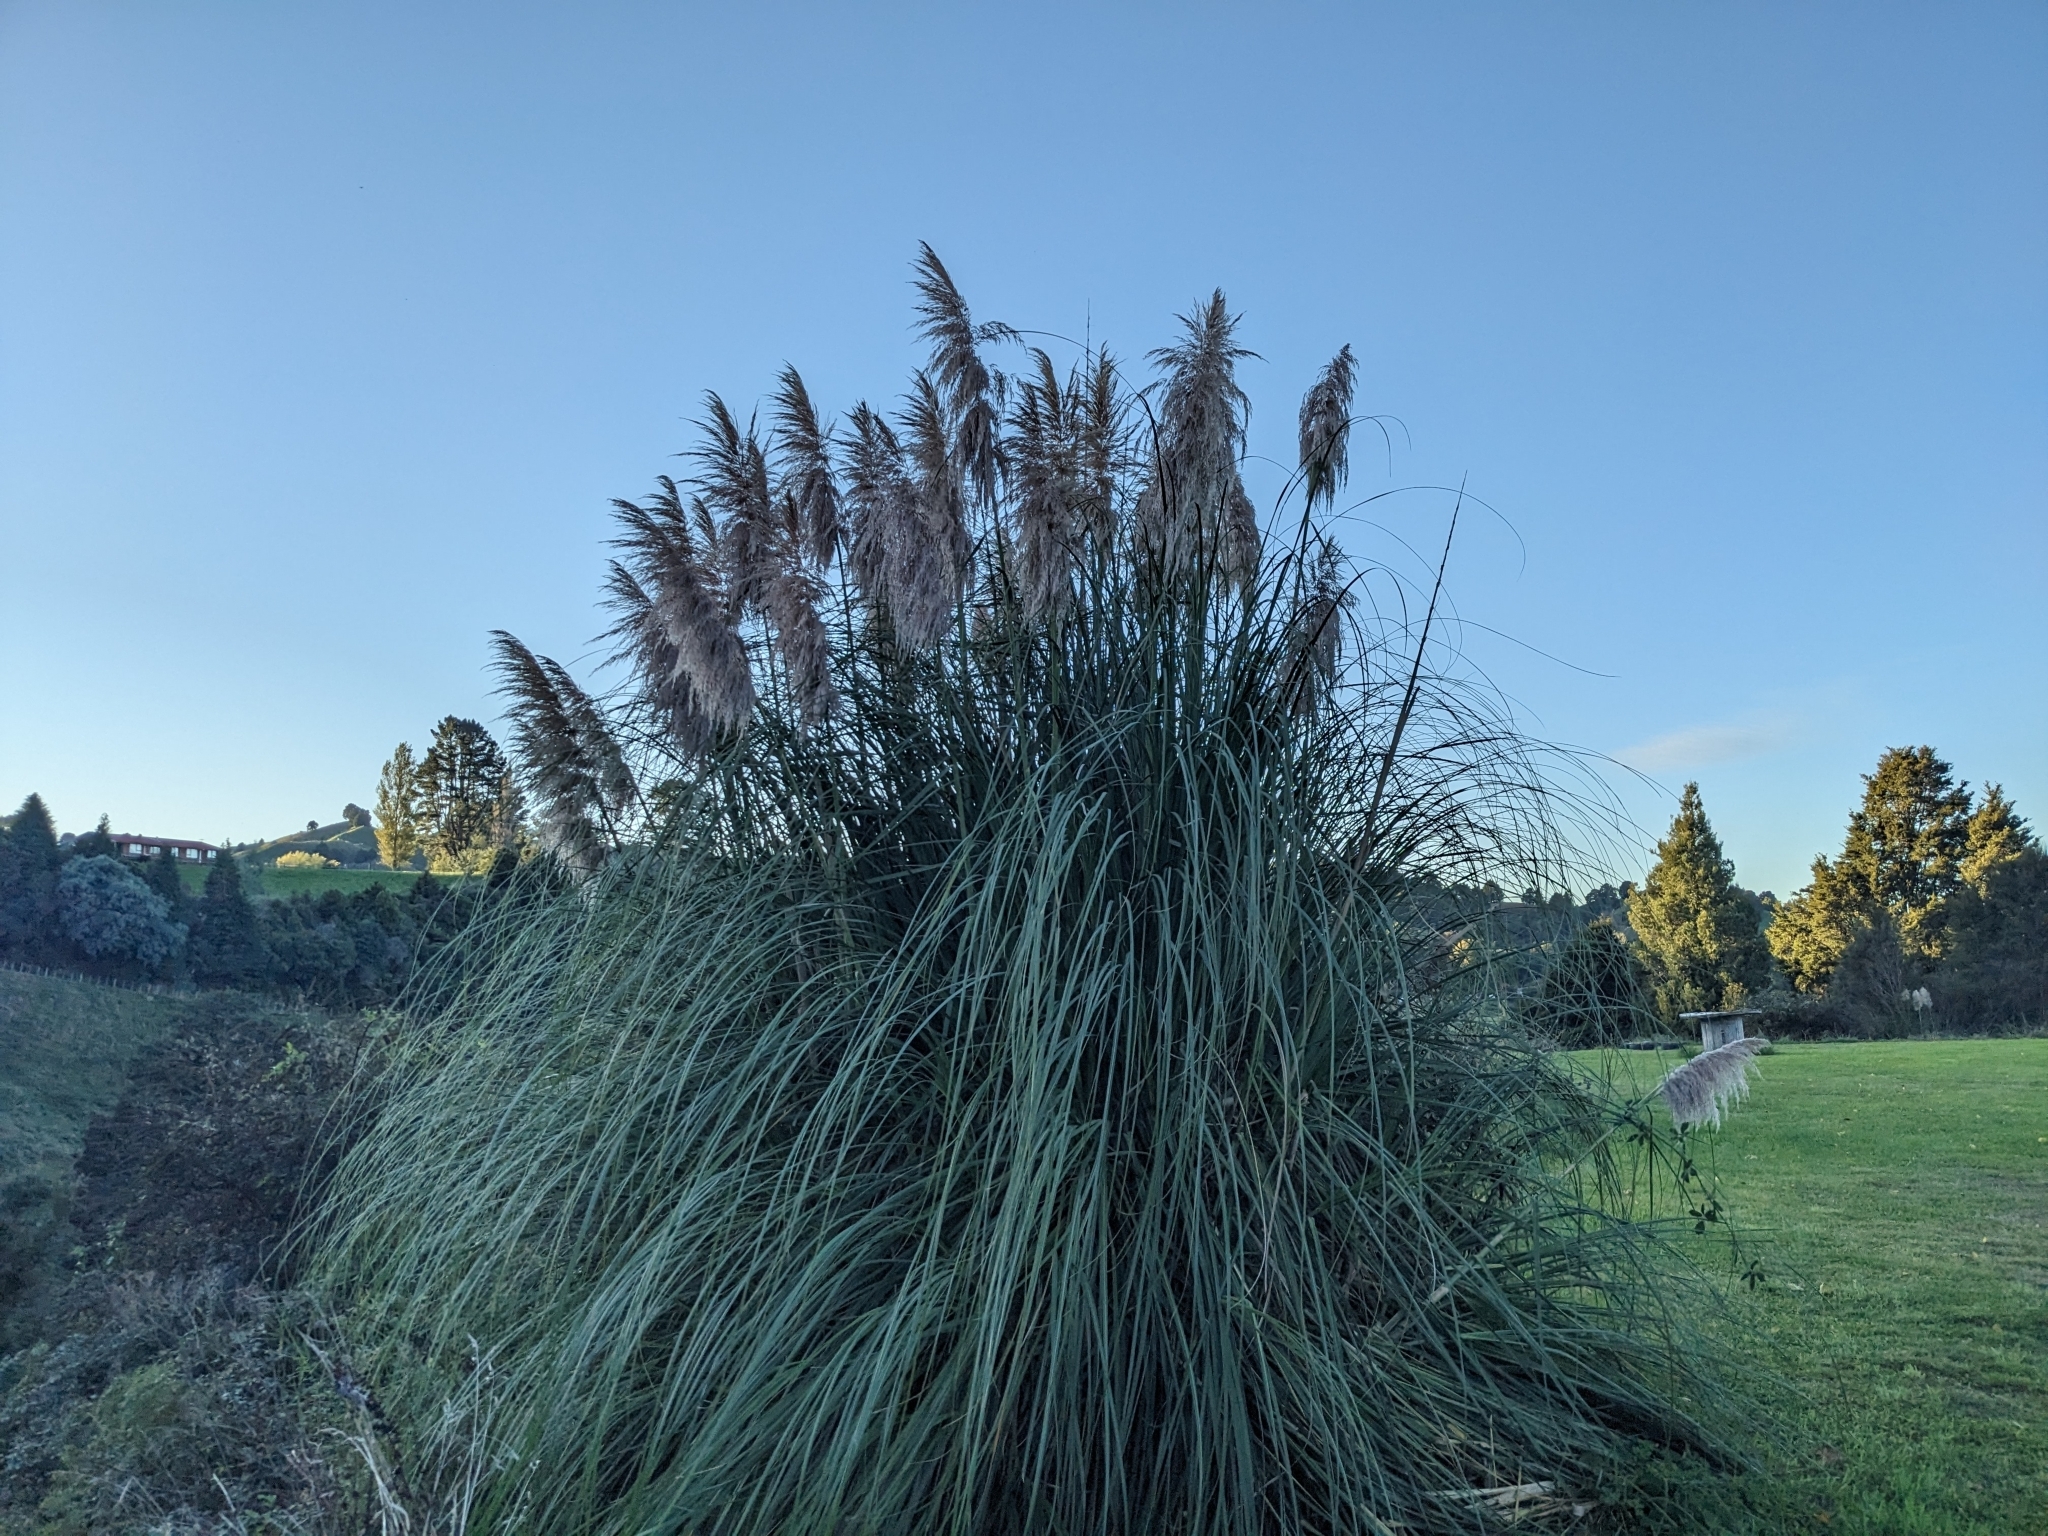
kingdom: Plantae
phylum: Tracheophyta
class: Liliopsida
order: Poales
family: Poaceae
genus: Cortaderia
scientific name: Cortaderia jubata
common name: Purple pampas grass
